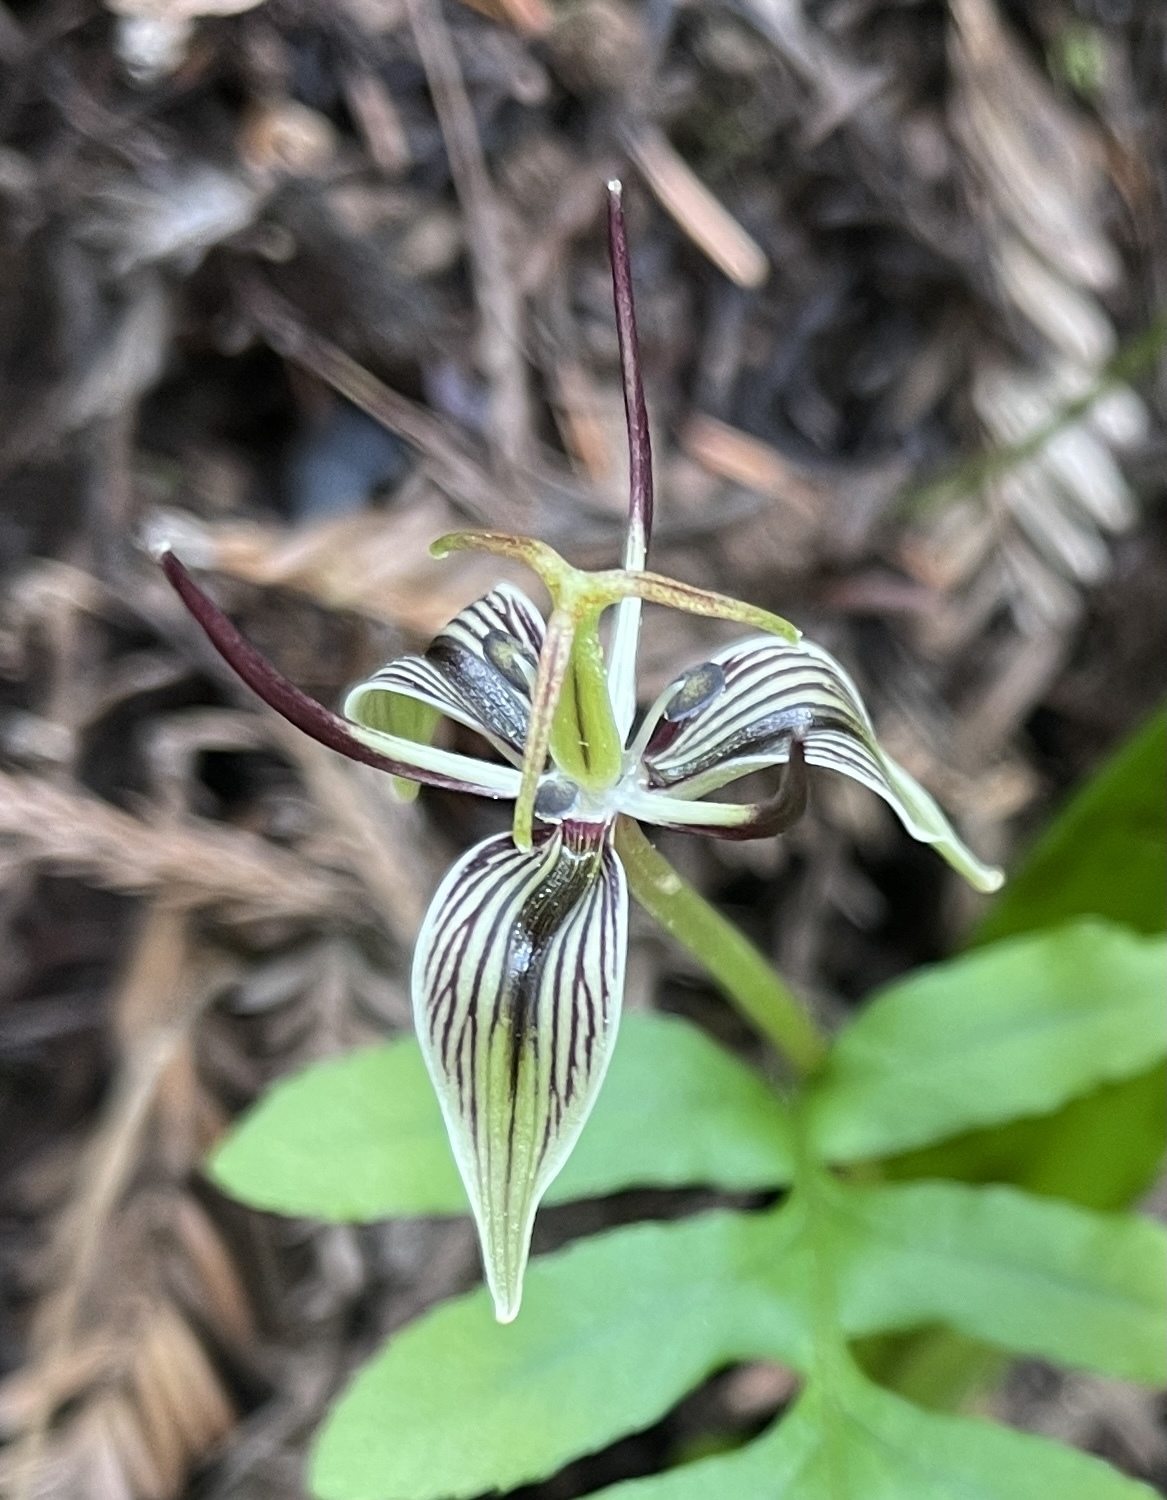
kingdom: Plantae
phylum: Tracheophyta
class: Liliopsida
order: Liliales
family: Liliaceae
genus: Scoliopus
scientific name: Scoliopus bigelovii
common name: Foetid adder's-tongue
